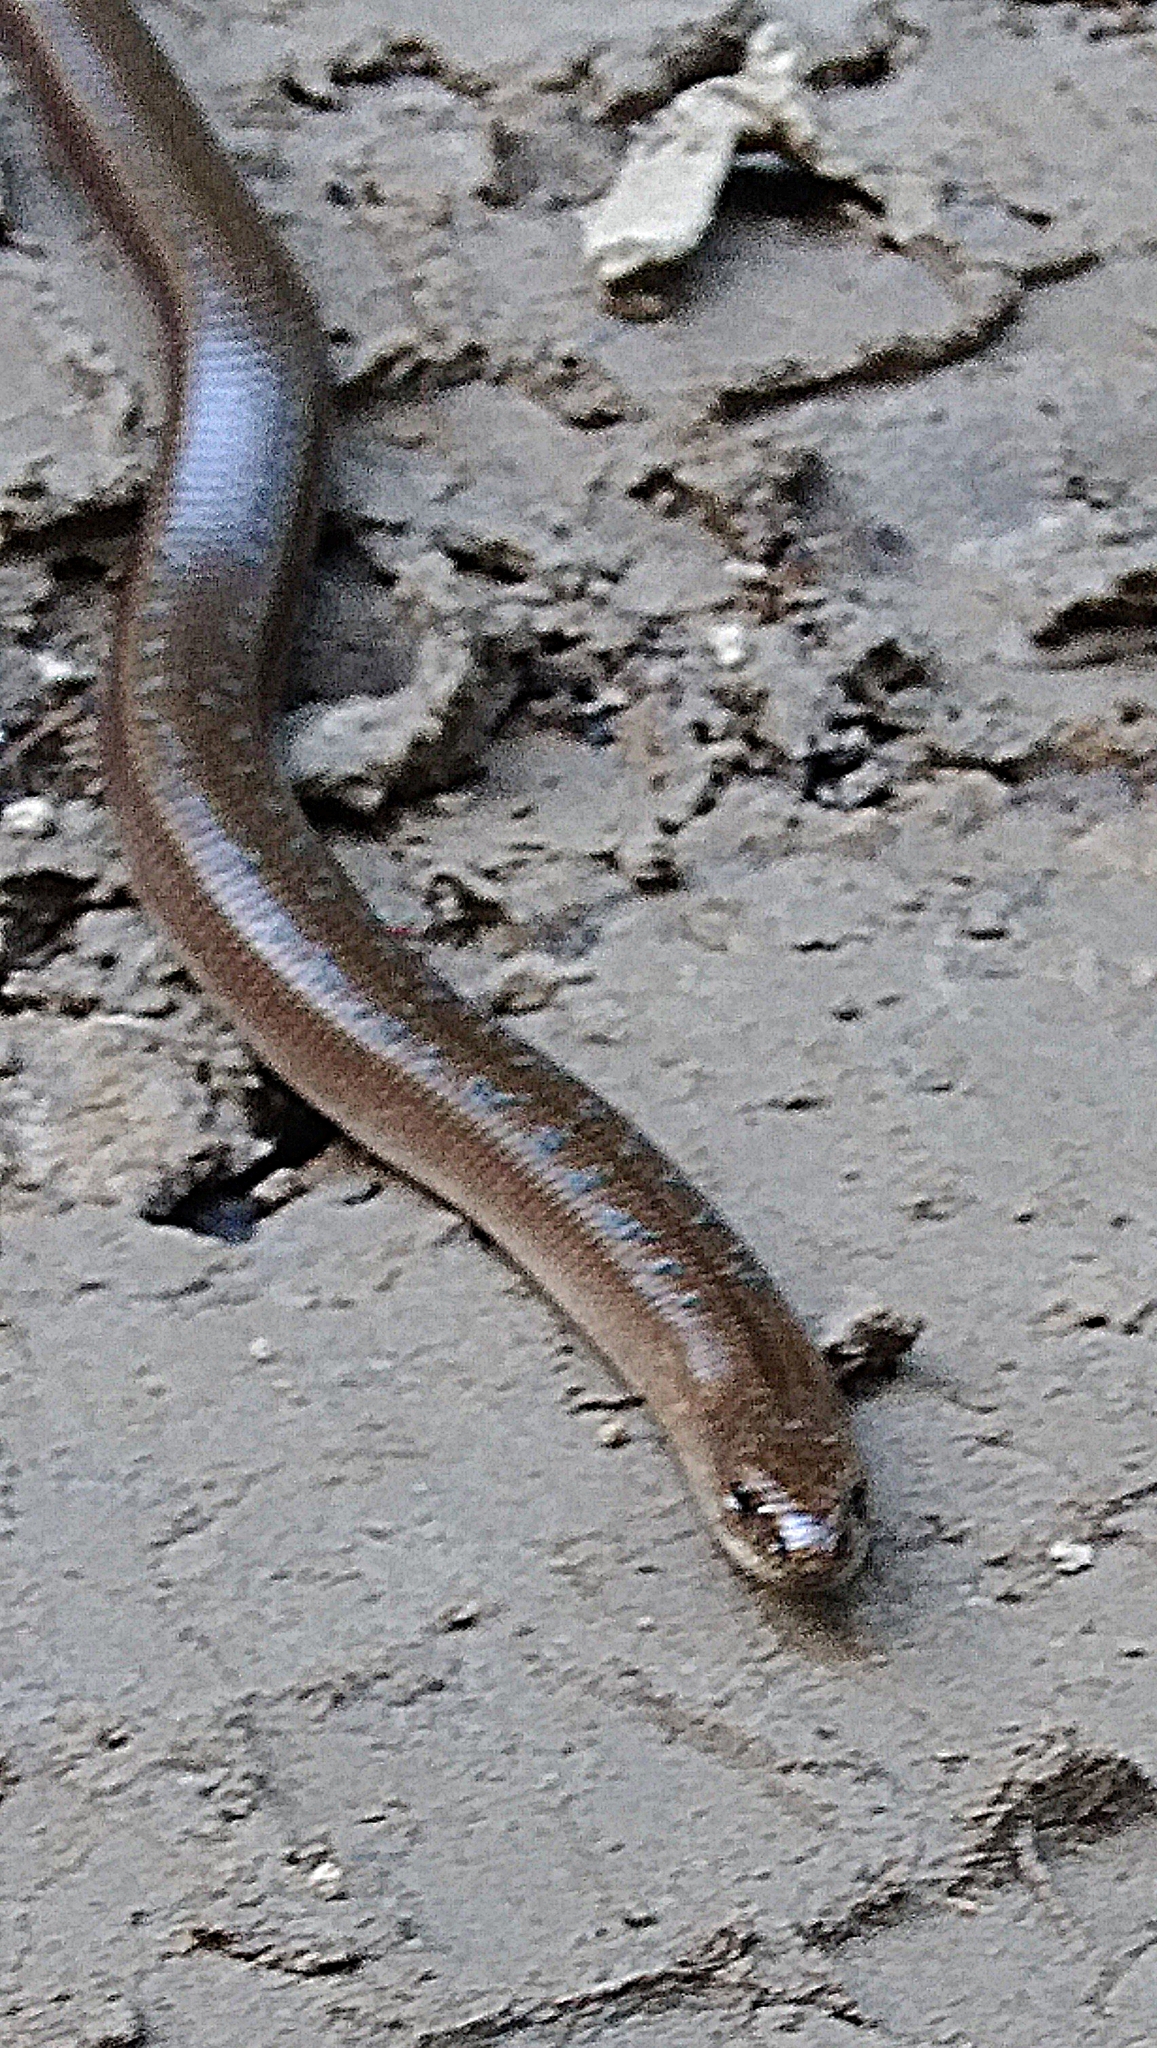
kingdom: Animalia
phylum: Chordata
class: Squamata
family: Anguidae
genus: Anguis
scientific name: Anguis colchica
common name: Slow worm
